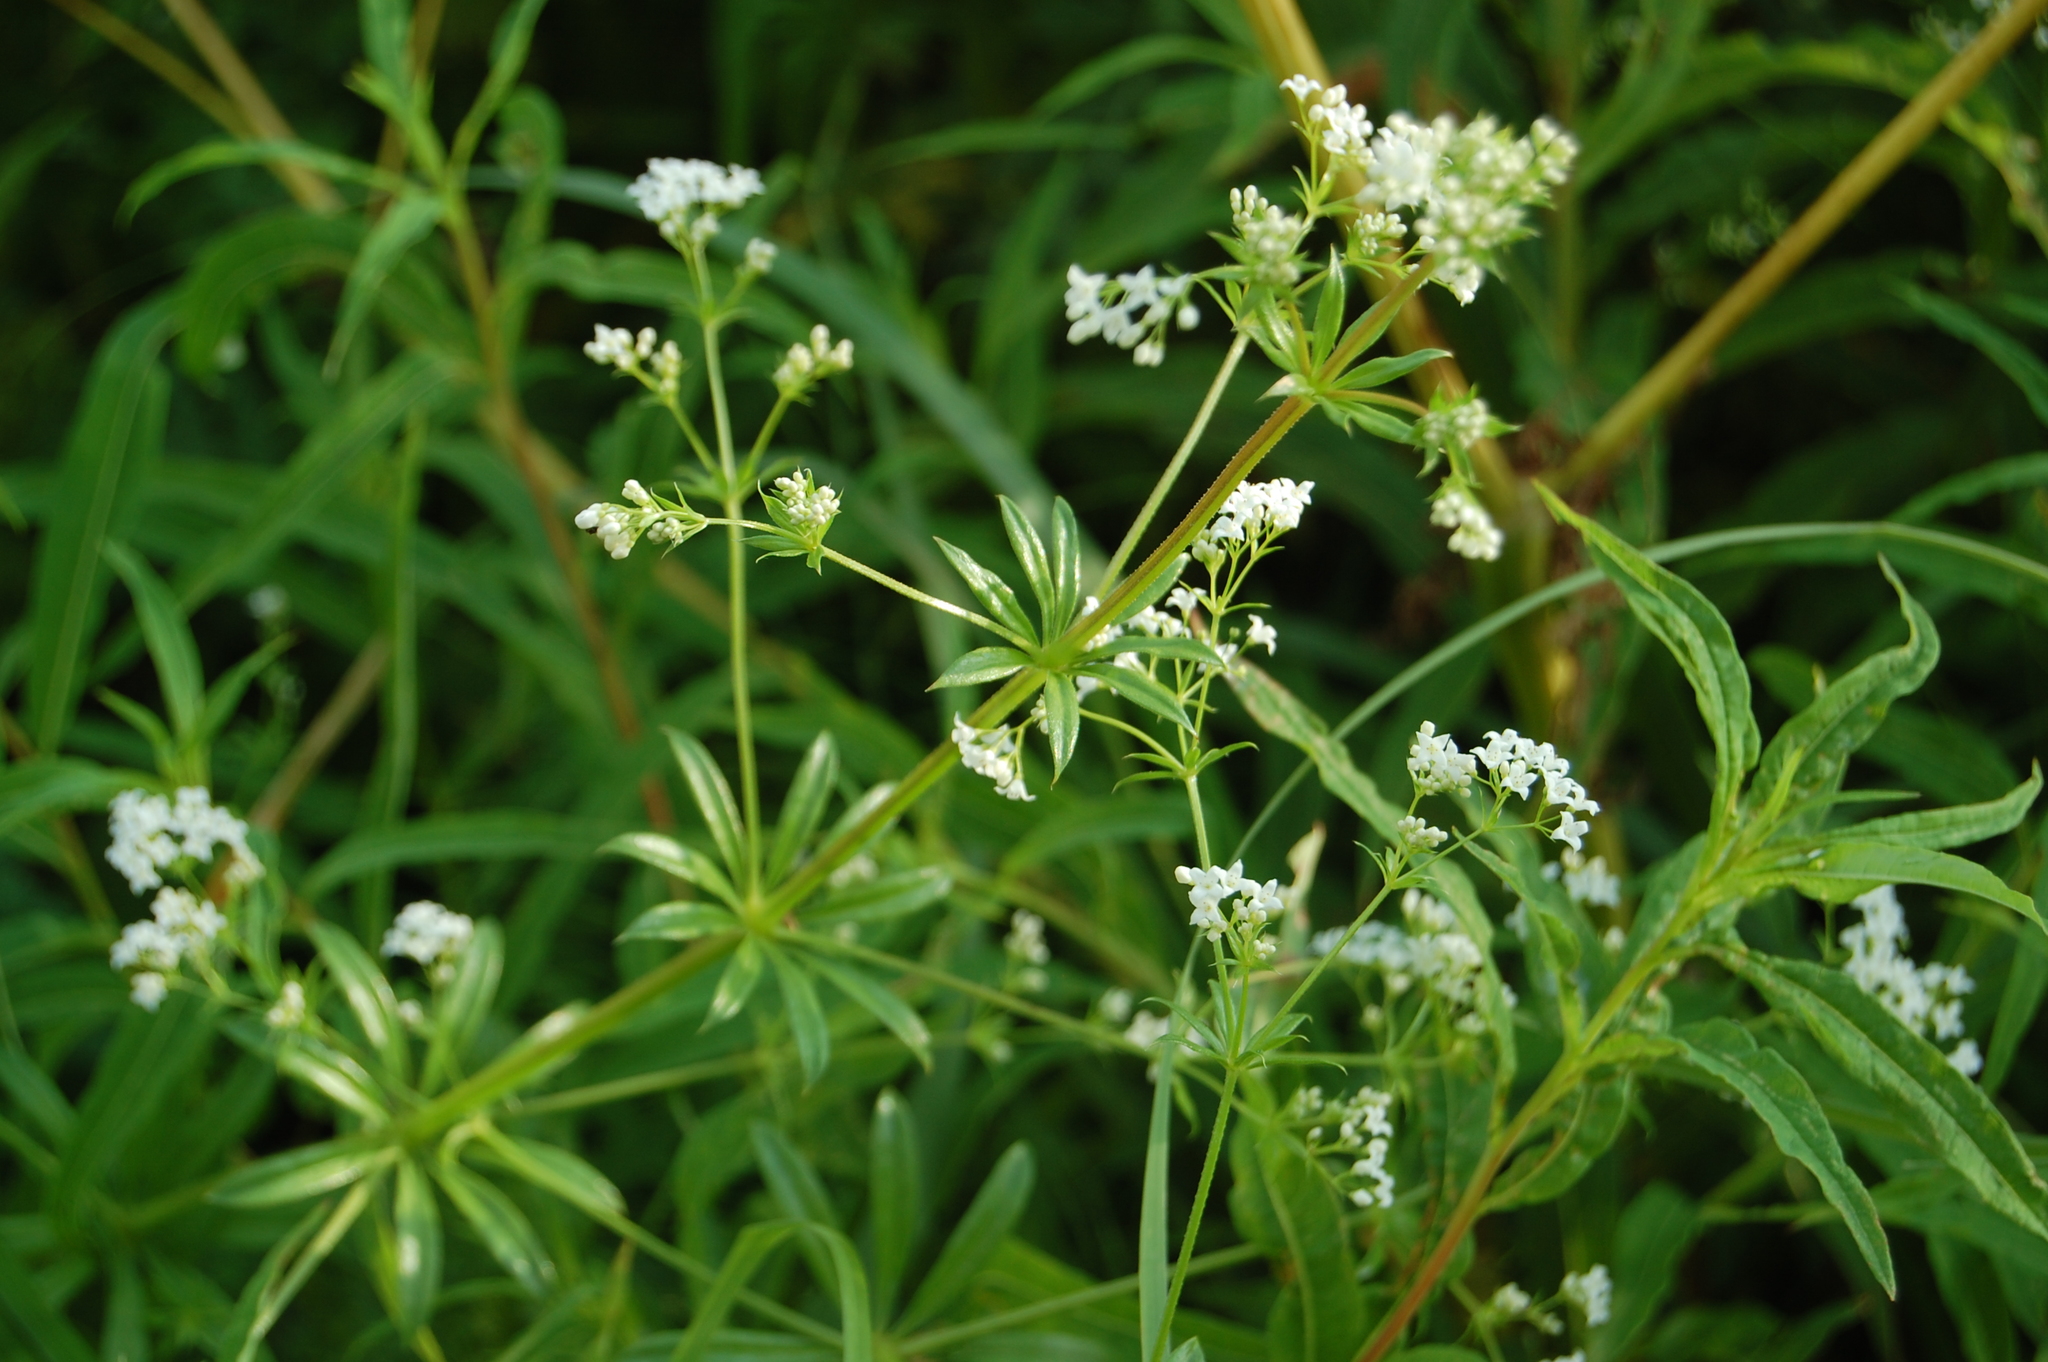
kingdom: Plantae
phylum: Tracheophyta
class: Magnoliopsida
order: Gentianales
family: Rubiaceae
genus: Galium
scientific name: Galium rivale
